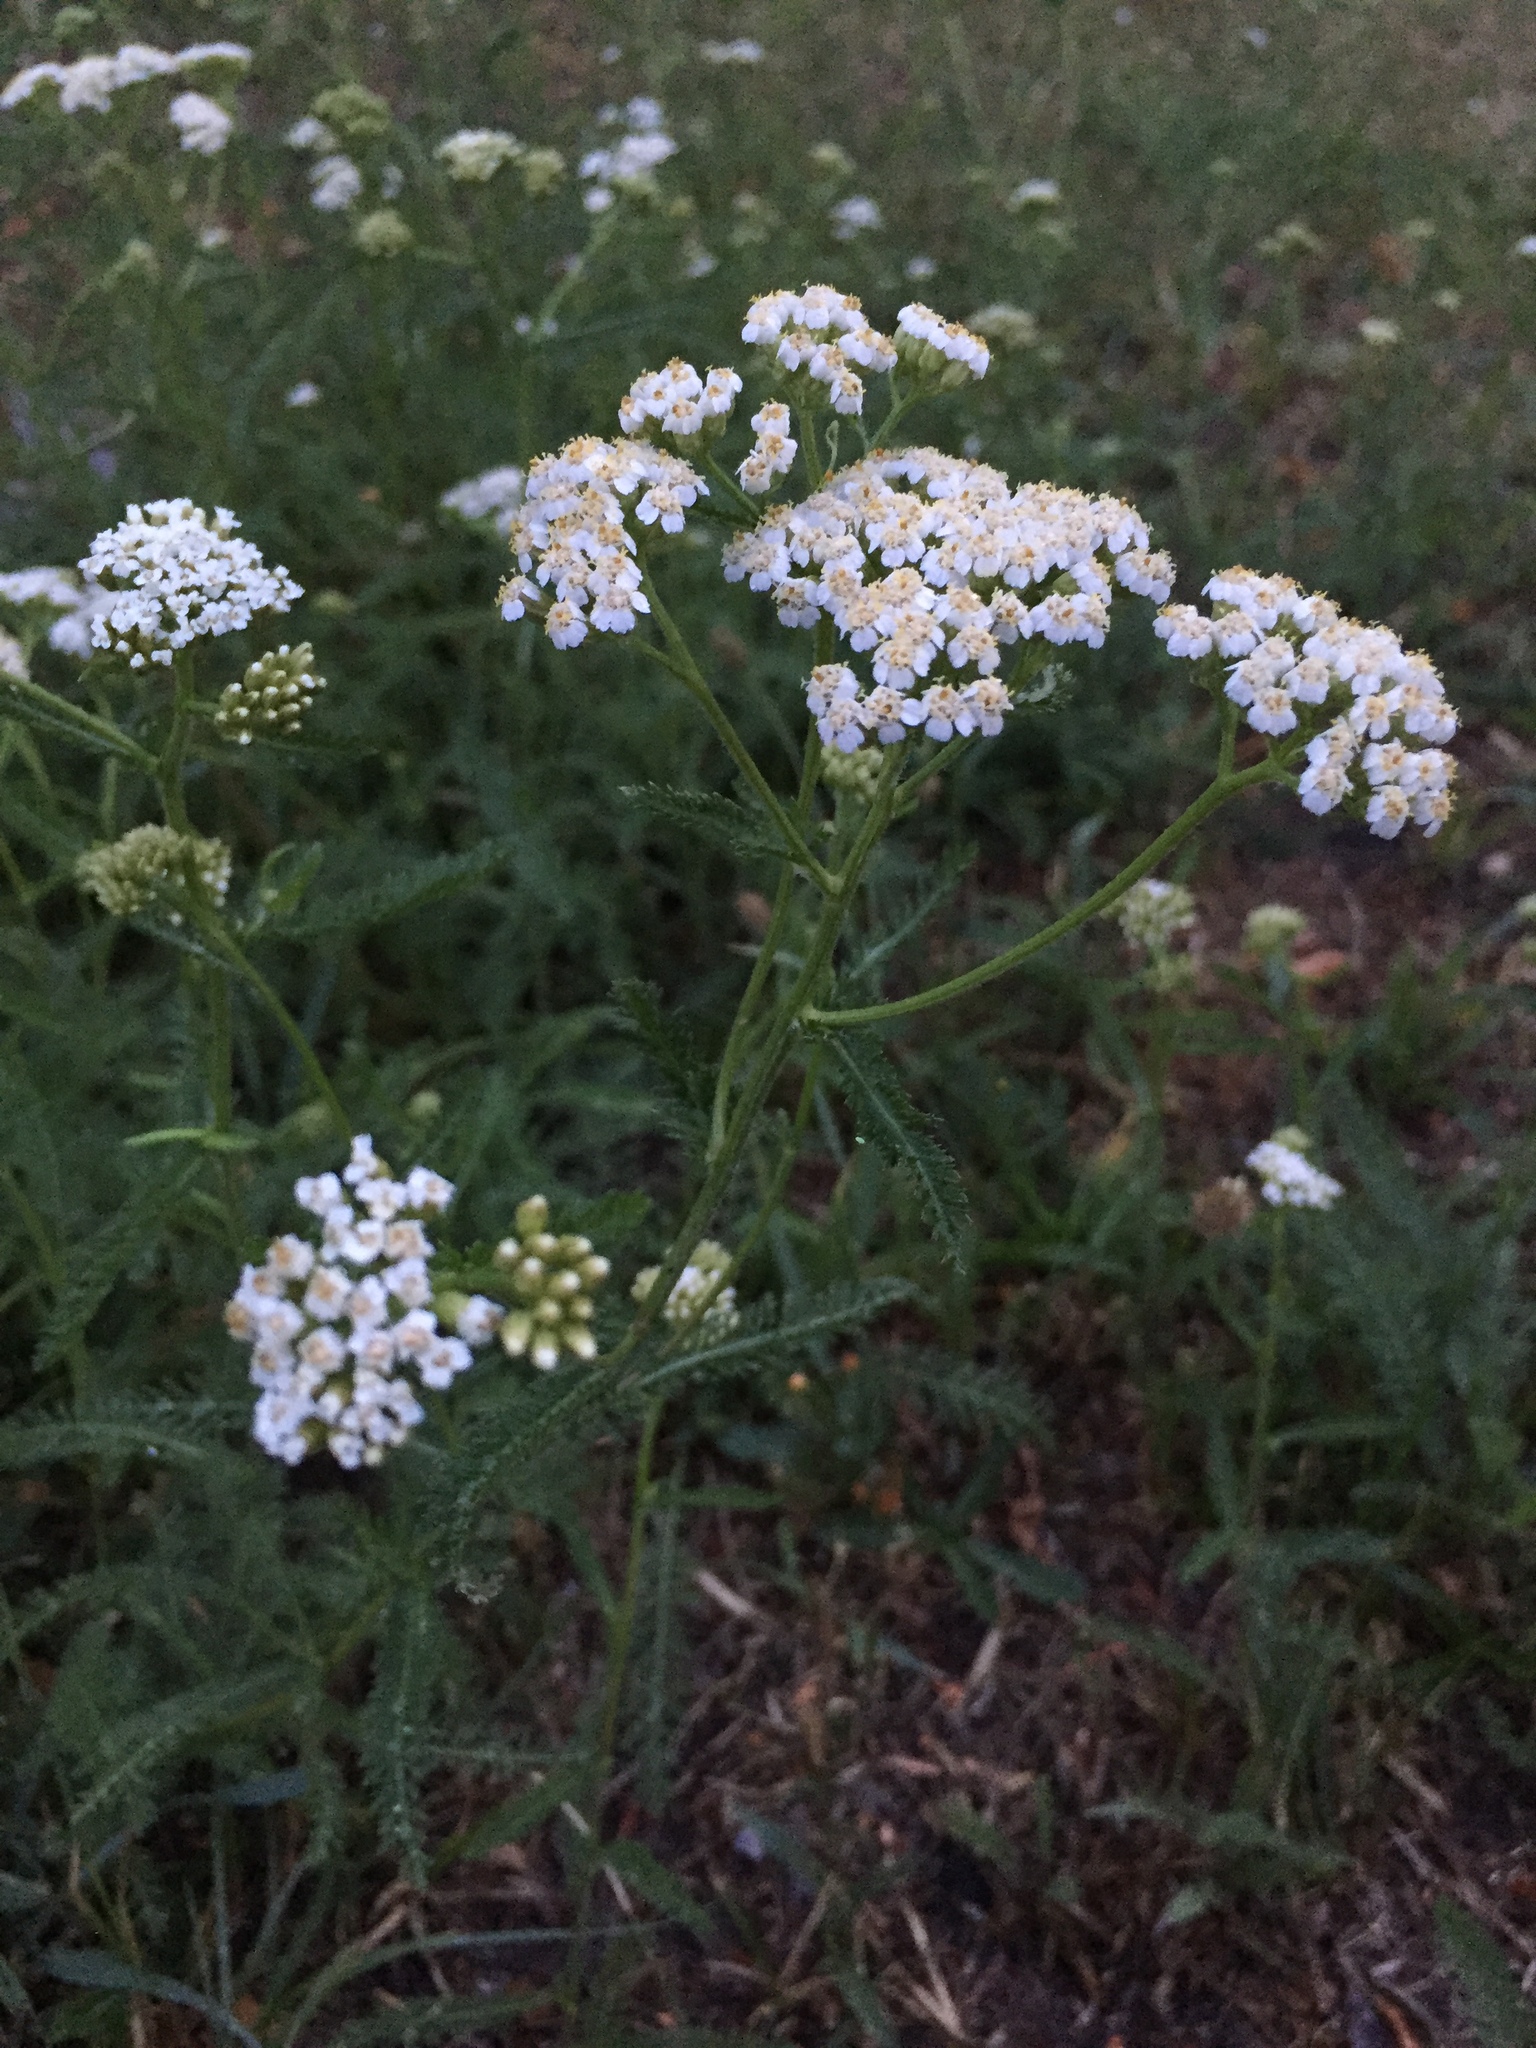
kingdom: Plantae
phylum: Tracheophyta
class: Magnoliopsida
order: Asterales
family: Asteraceae
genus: Achillea
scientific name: Achillea millefolium
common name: Yarrow
